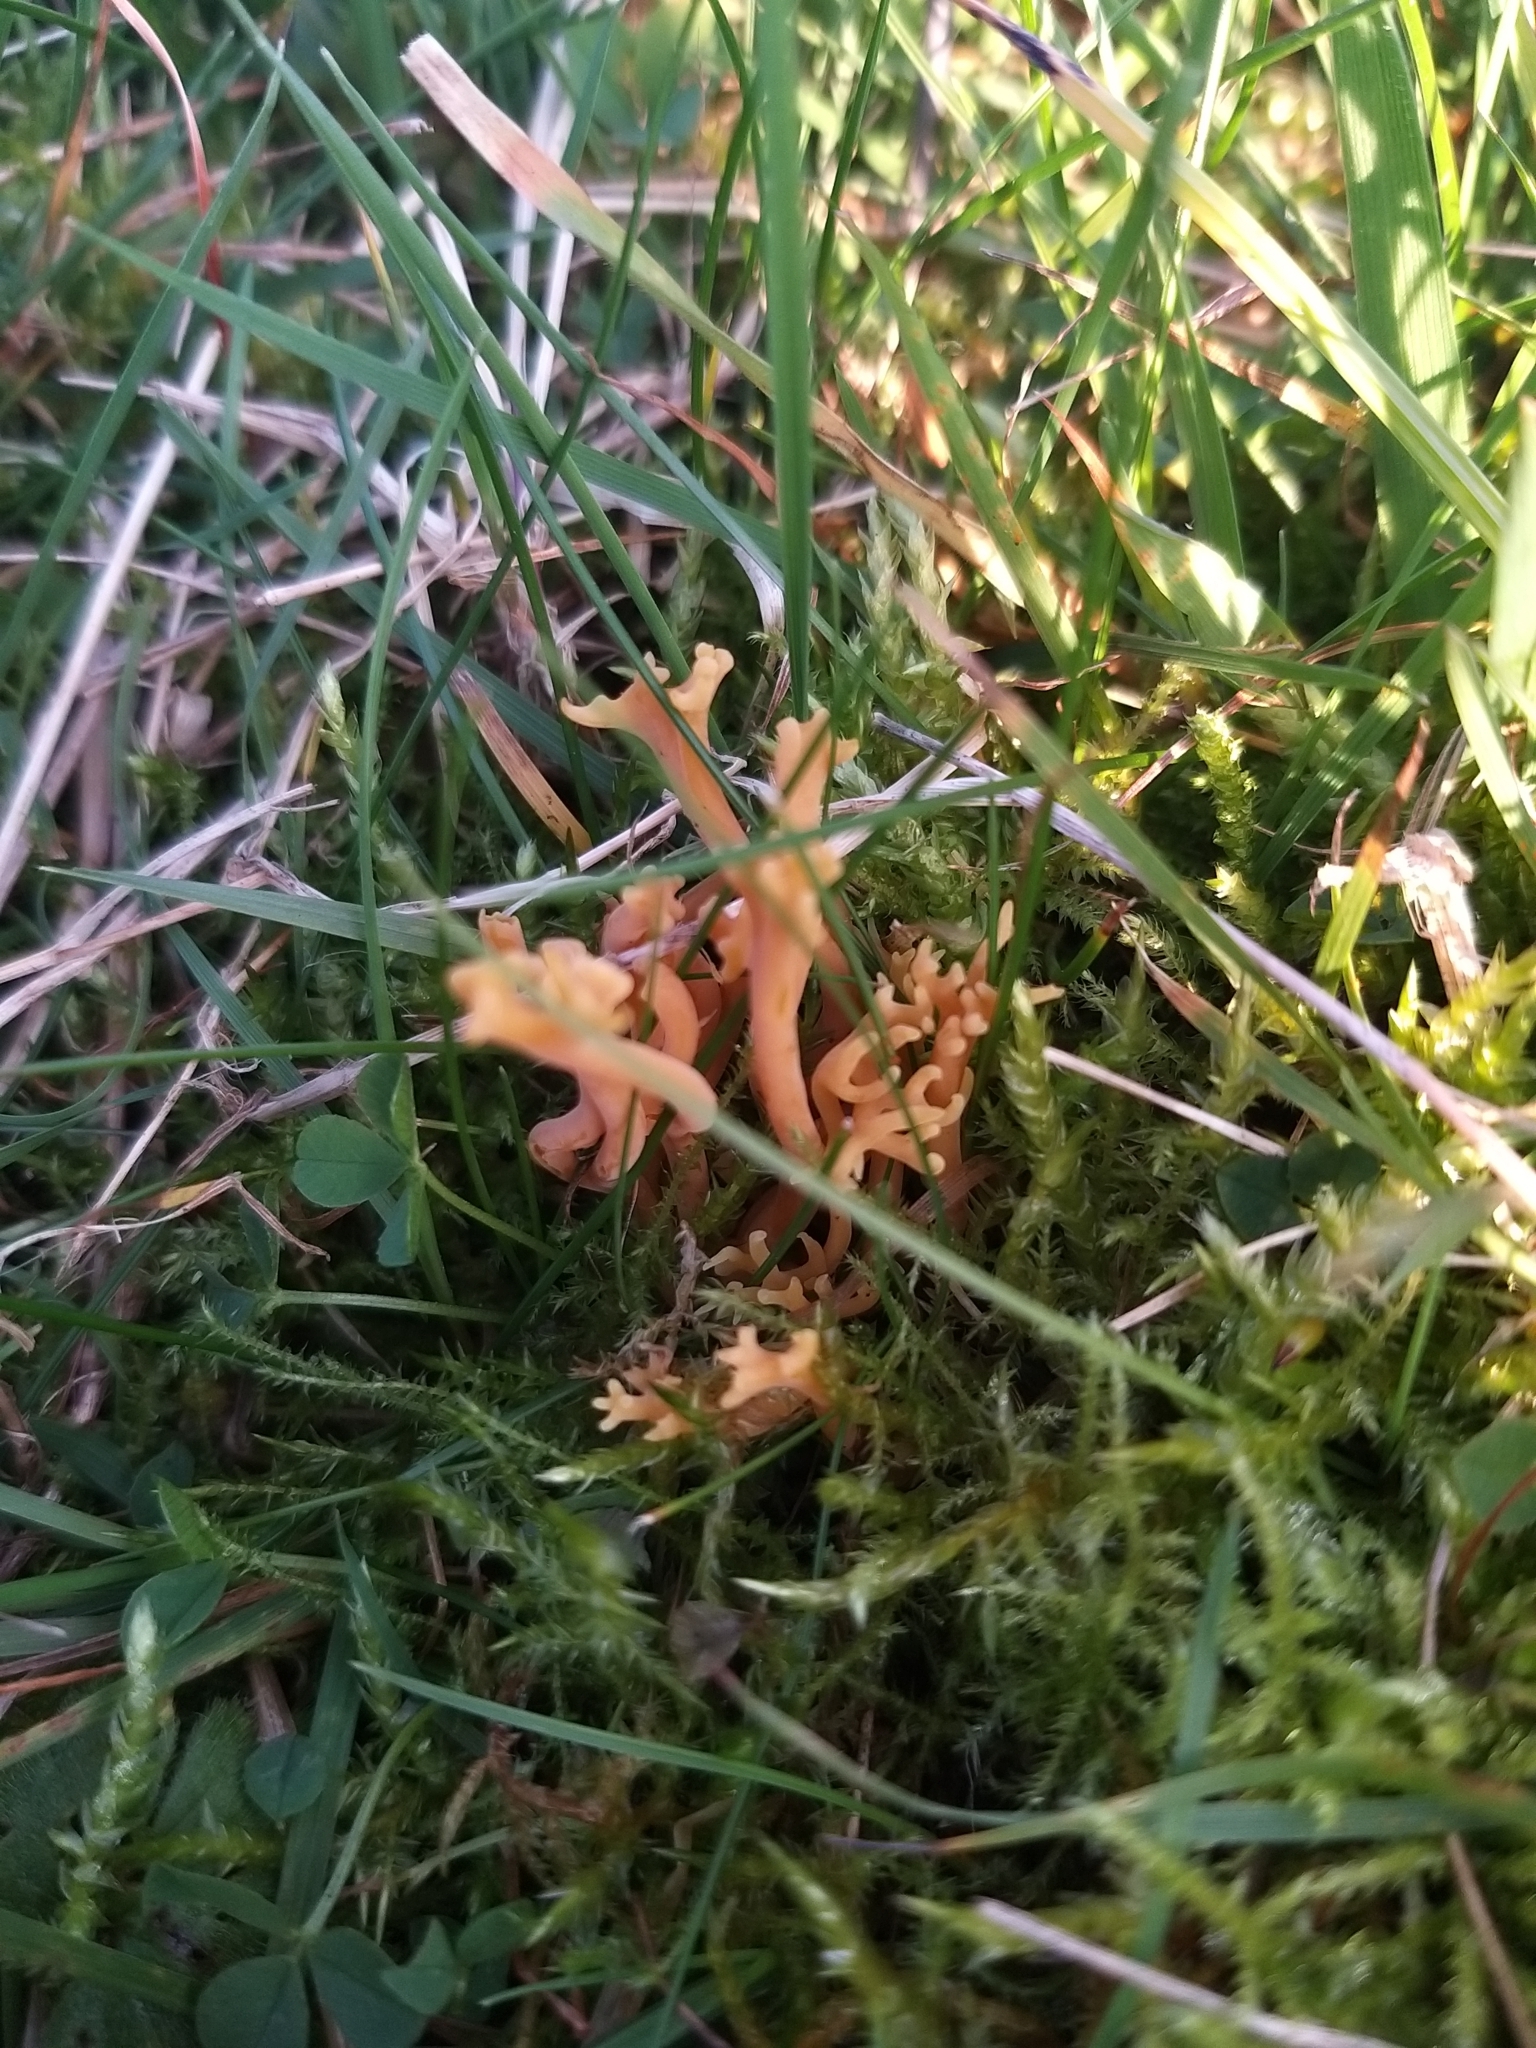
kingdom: Fungi
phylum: Basidiomycota
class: Agaricomycetes
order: Agaricales
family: Clavariaceae
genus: Clavulinopsis
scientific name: Clavulinopsis corniculata
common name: Meadow coral
